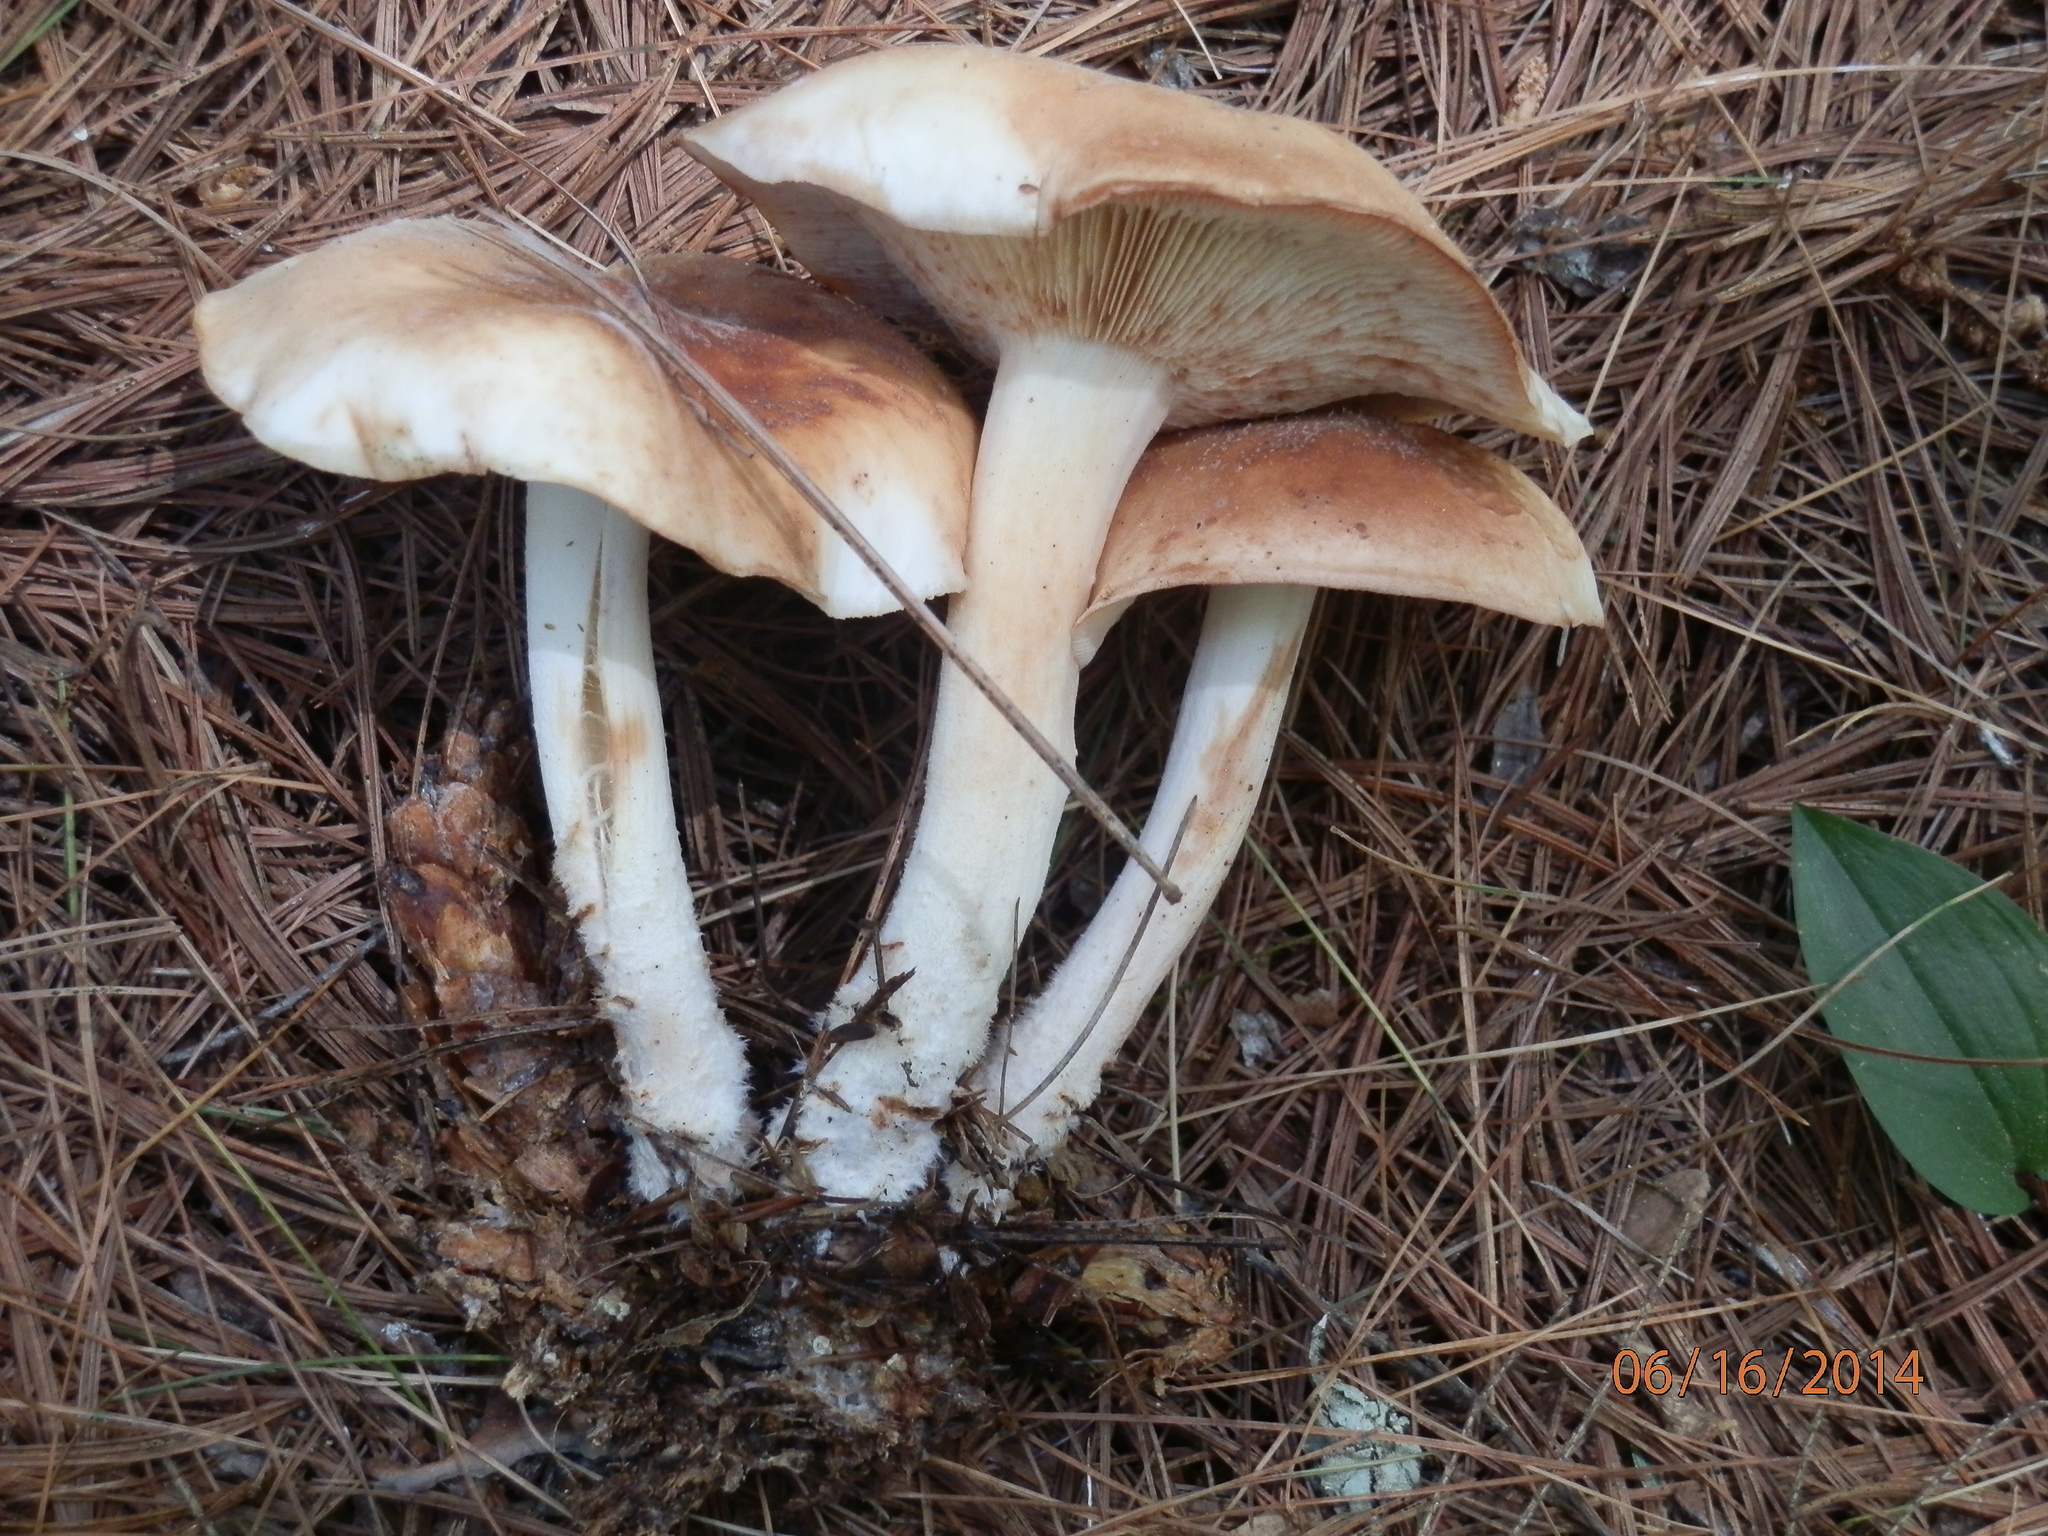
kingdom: Fungi
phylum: Basidiomycota
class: Agaricomycetes
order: Agaricales
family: Omphalotaceae
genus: Rhodocollybia
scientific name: Rhodocollybia maculata
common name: Spotted tough-shank
